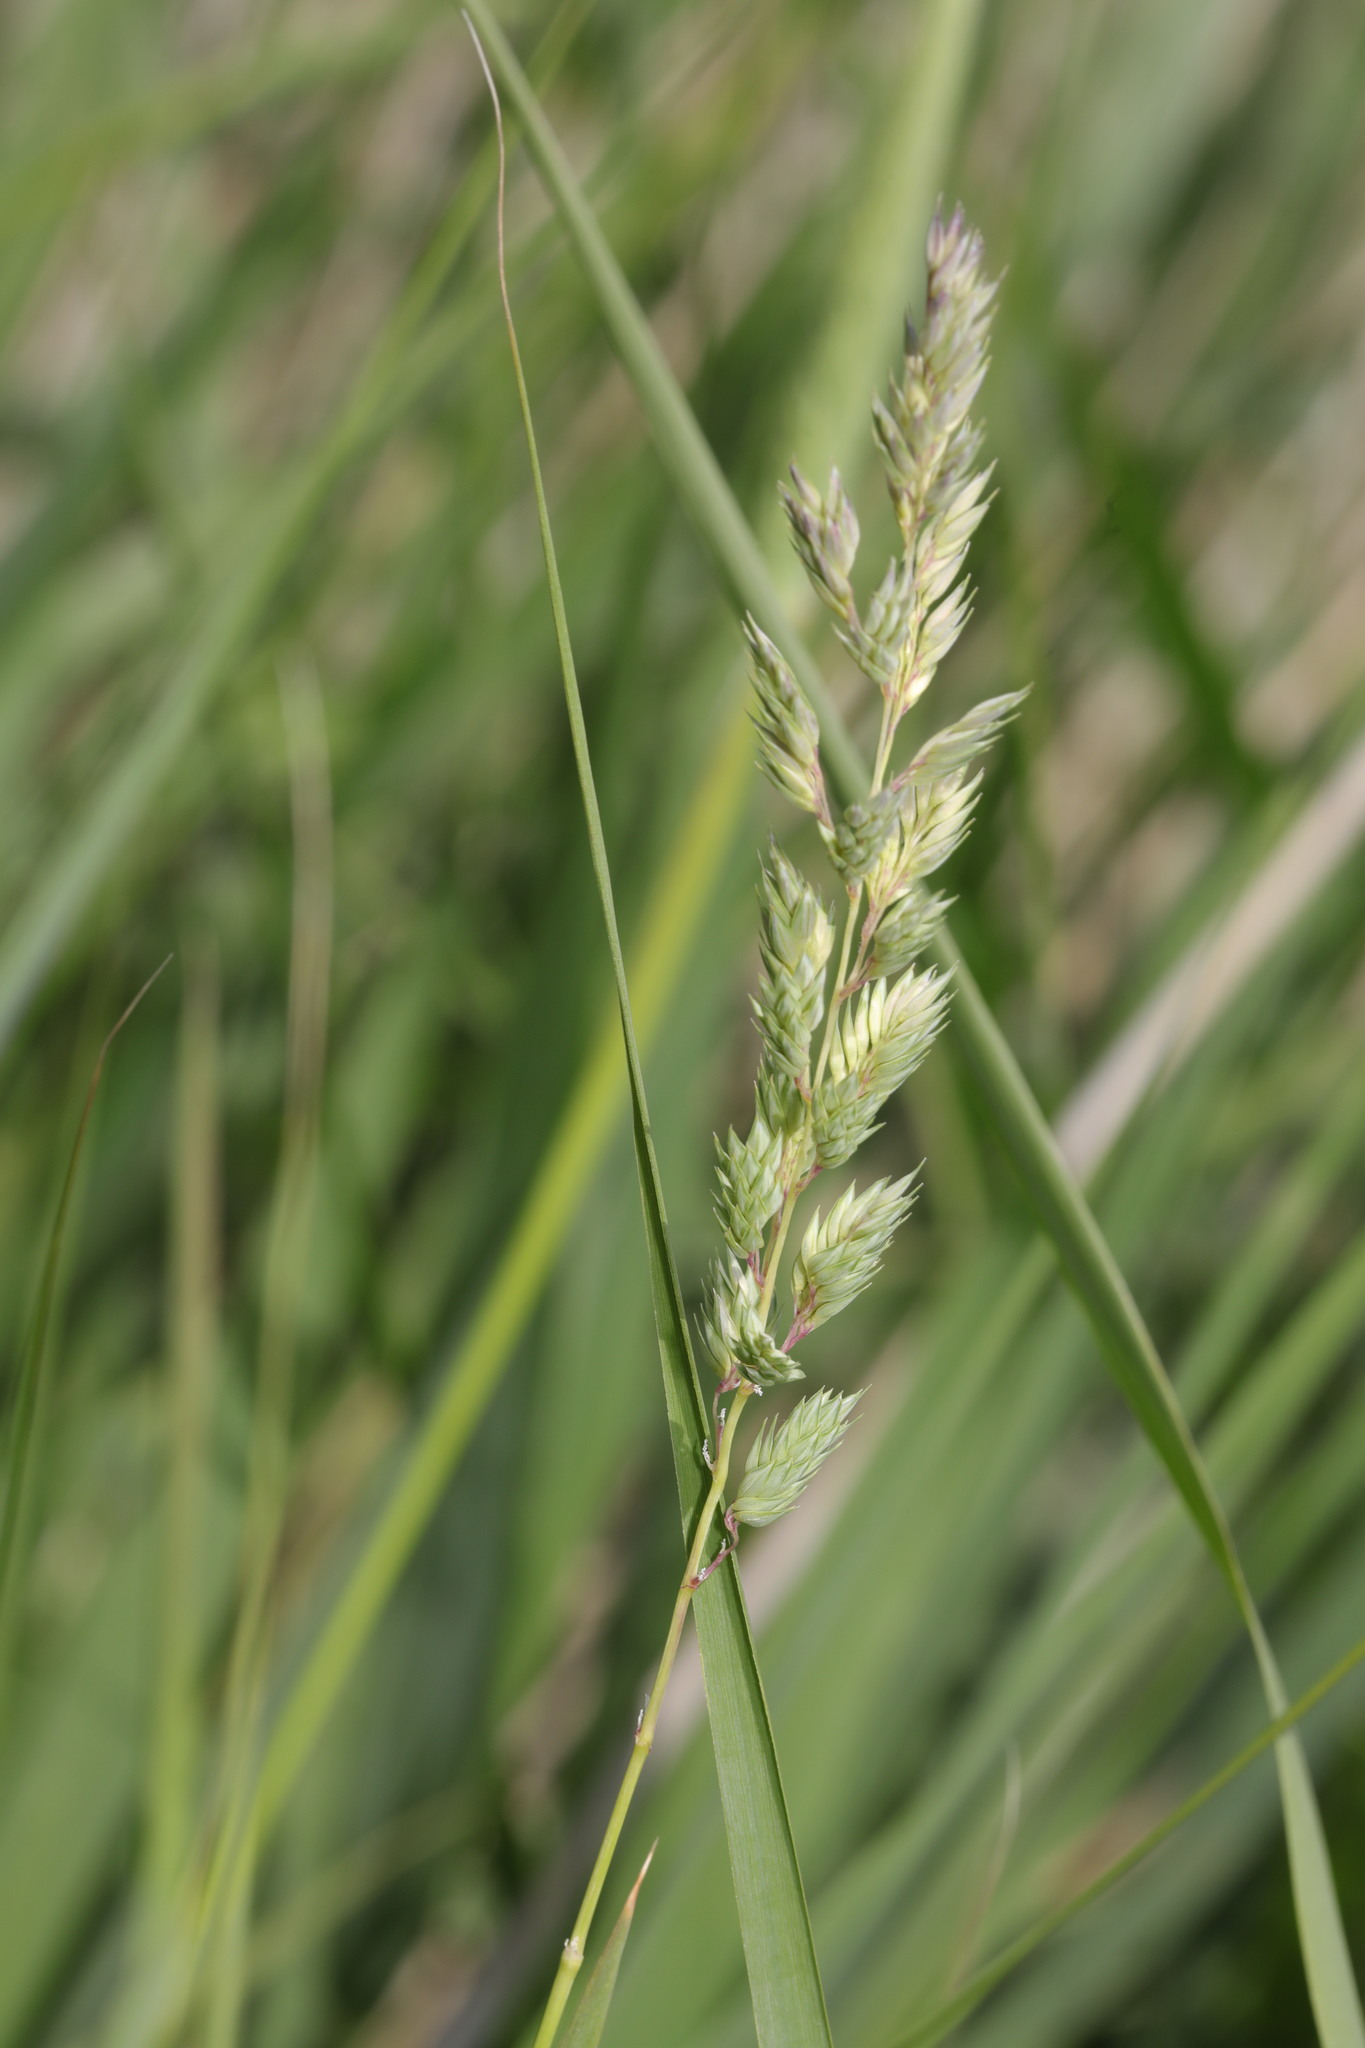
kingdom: Plantae
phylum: Tracheophyta
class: Liliopsida
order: Poales
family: Poaceae
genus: Phalaris
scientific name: Phalaris arundinacea
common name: Reed canary-grass
